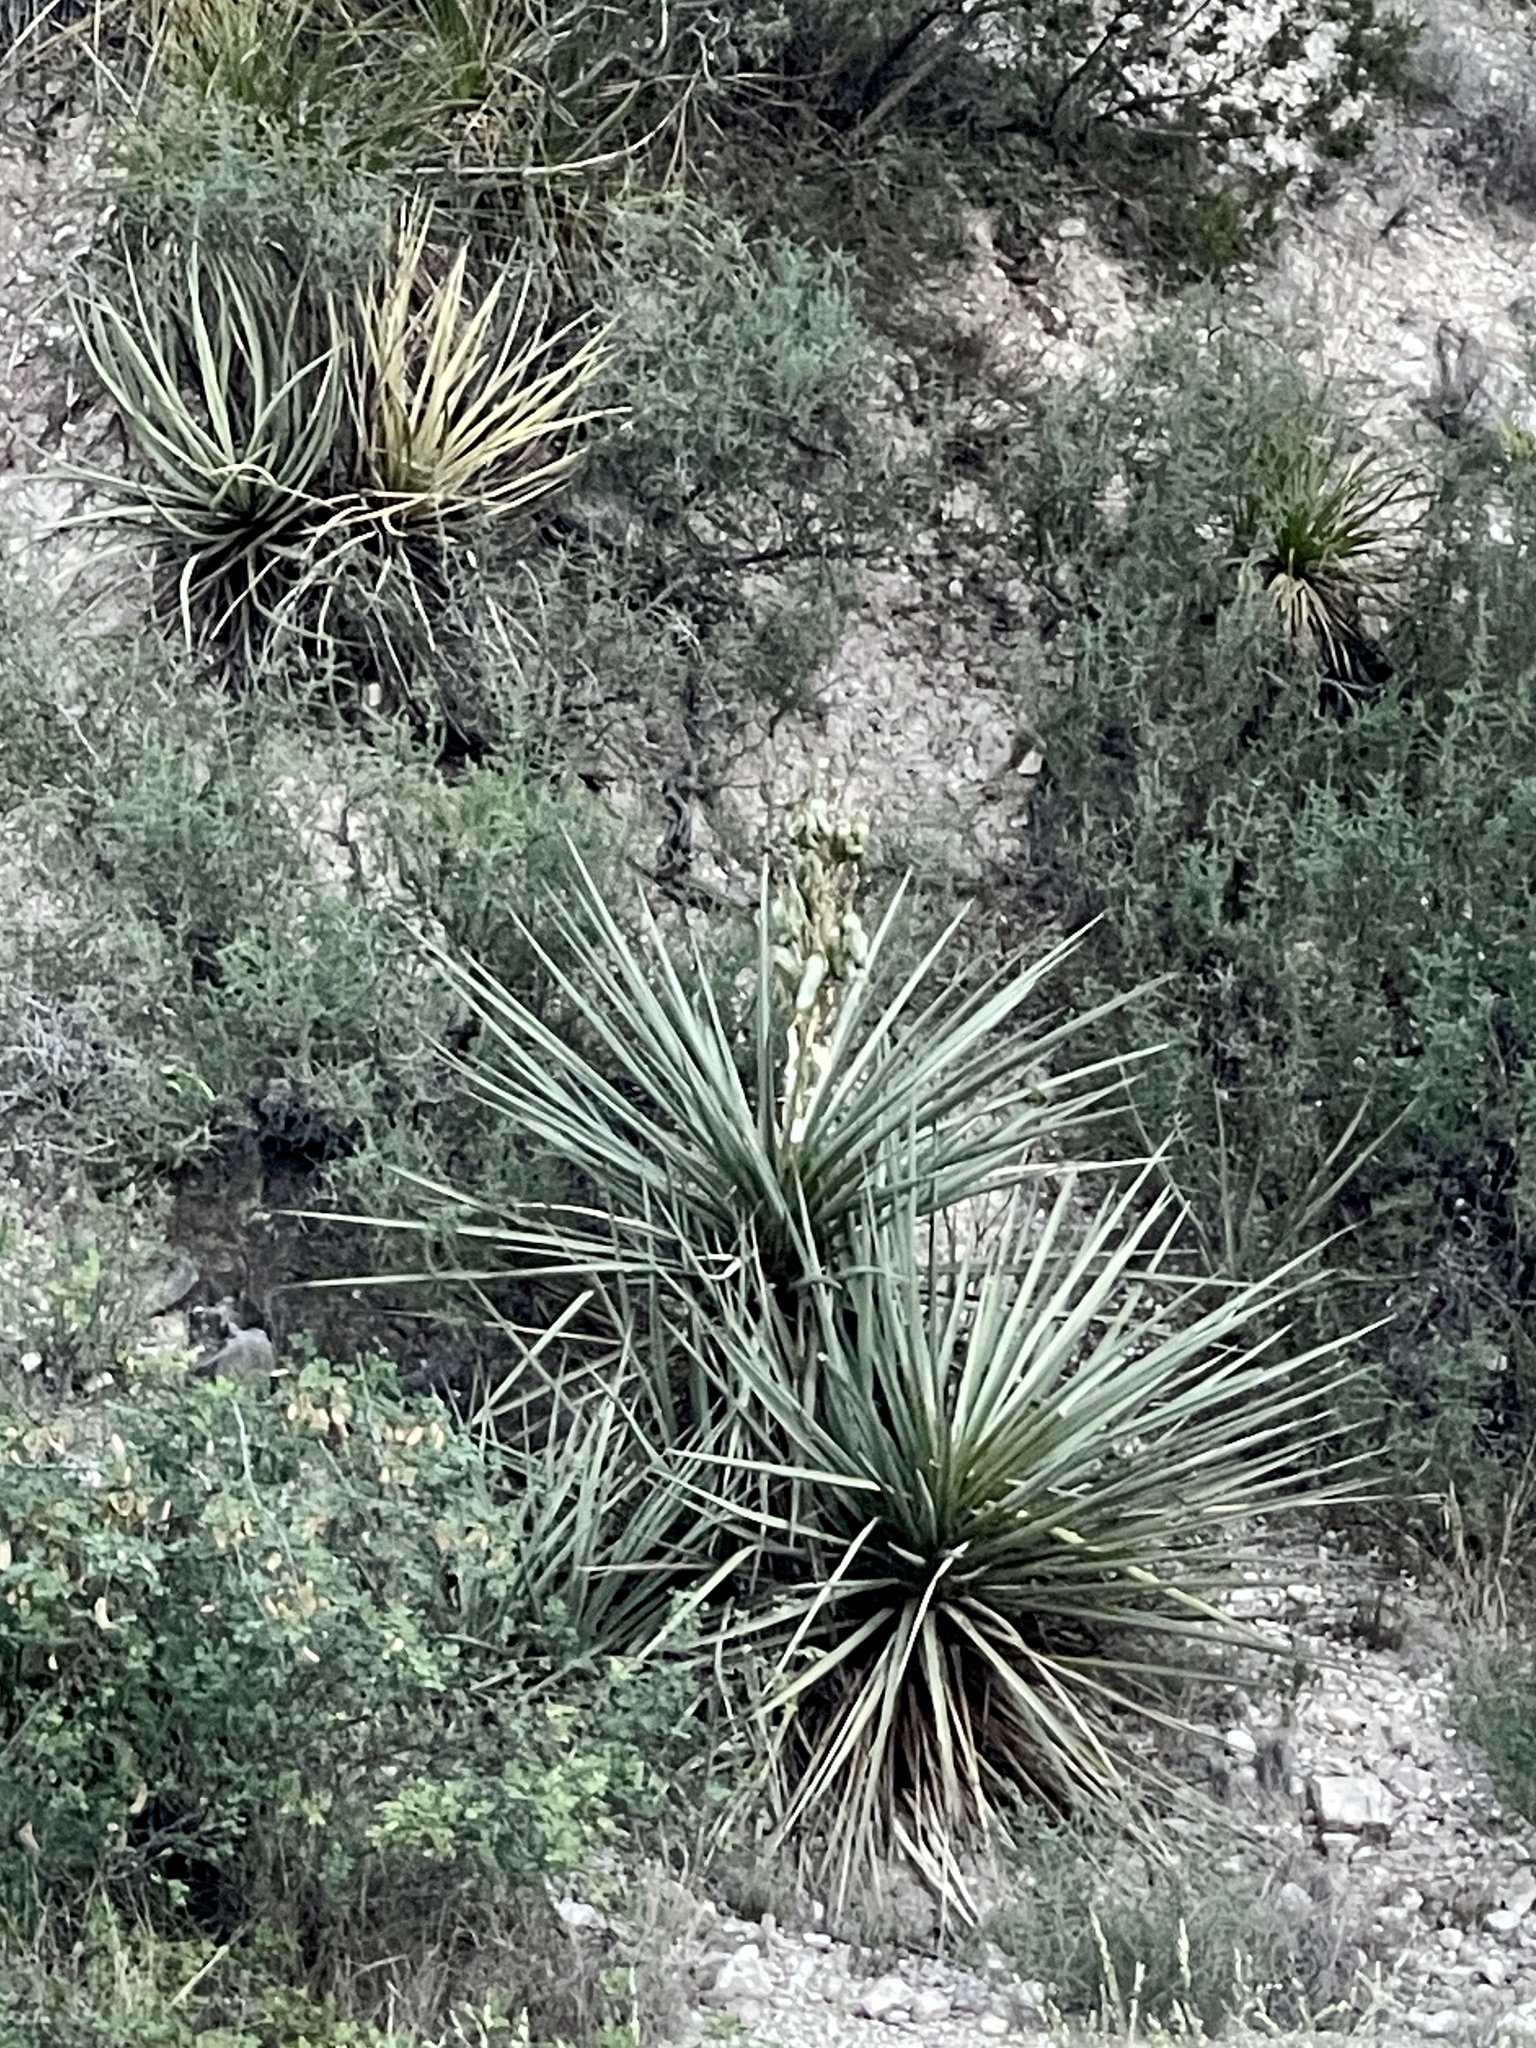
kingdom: Plantae
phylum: Tracheophyta
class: Liliopsida
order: Asparagales
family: Asparagaceae
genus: Yucca
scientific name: Yucca treculiana
